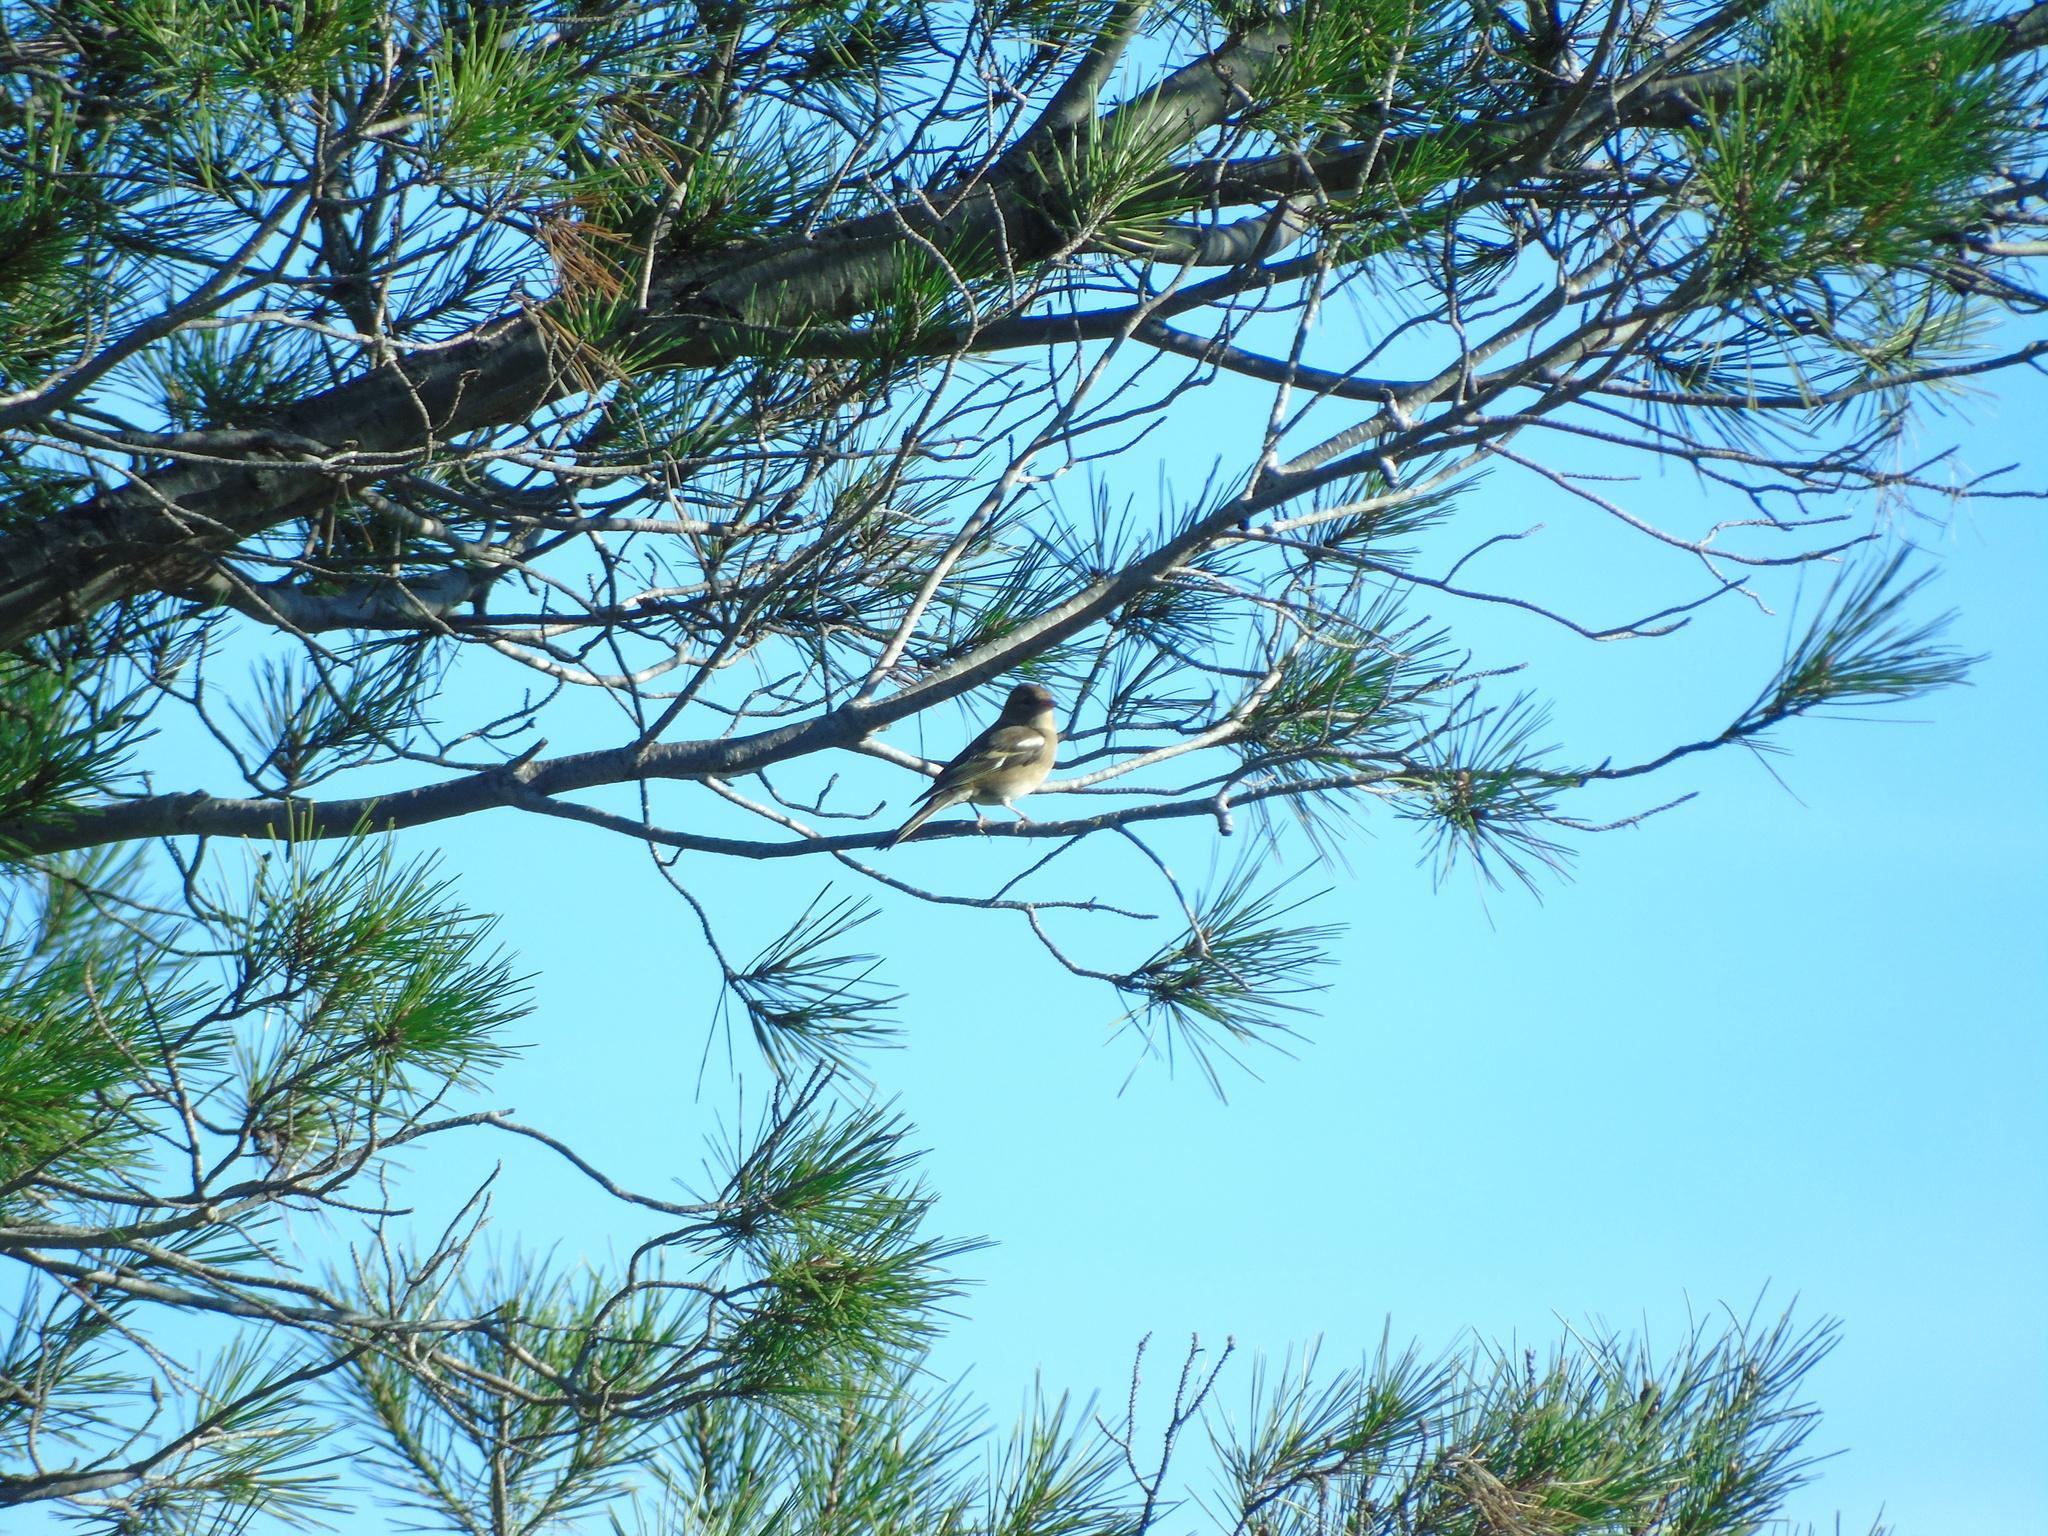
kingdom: Animalia
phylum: Chordata
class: Aves
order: Passeriformes
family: Fringillidae
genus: Fringilla
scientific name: Fringilla coelebs
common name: Common chaffinch
